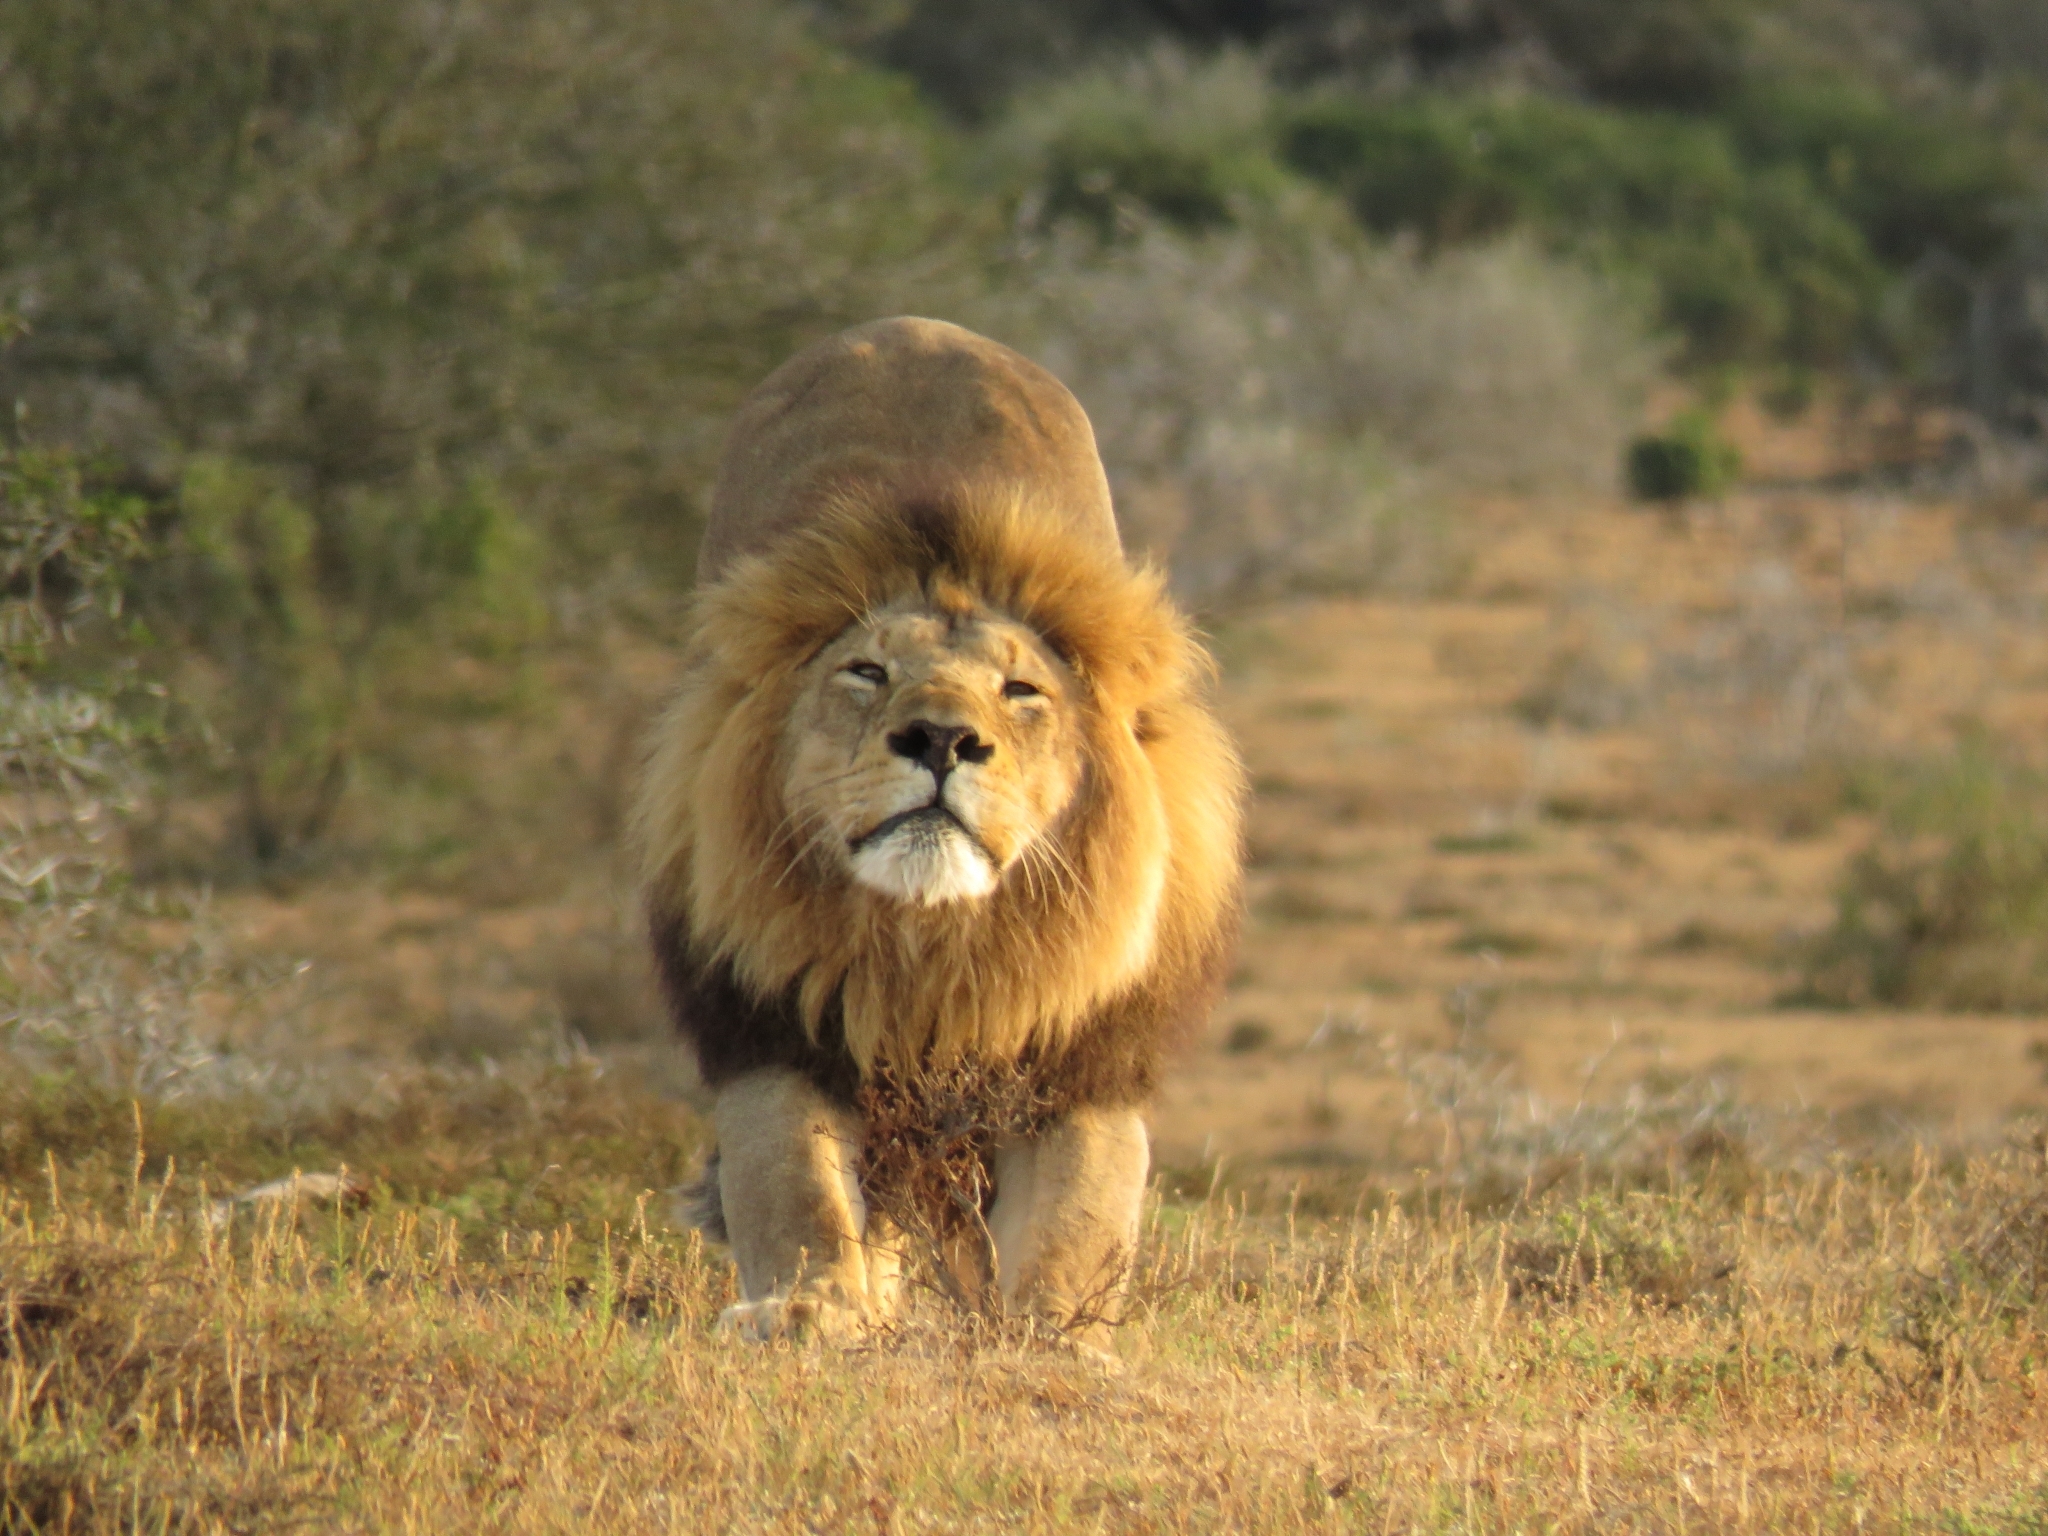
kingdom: Animalia
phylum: Chordata
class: Mammalia
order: Carnivora
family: Felidae
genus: Panthera
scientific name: Panthera leo
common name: Lion
